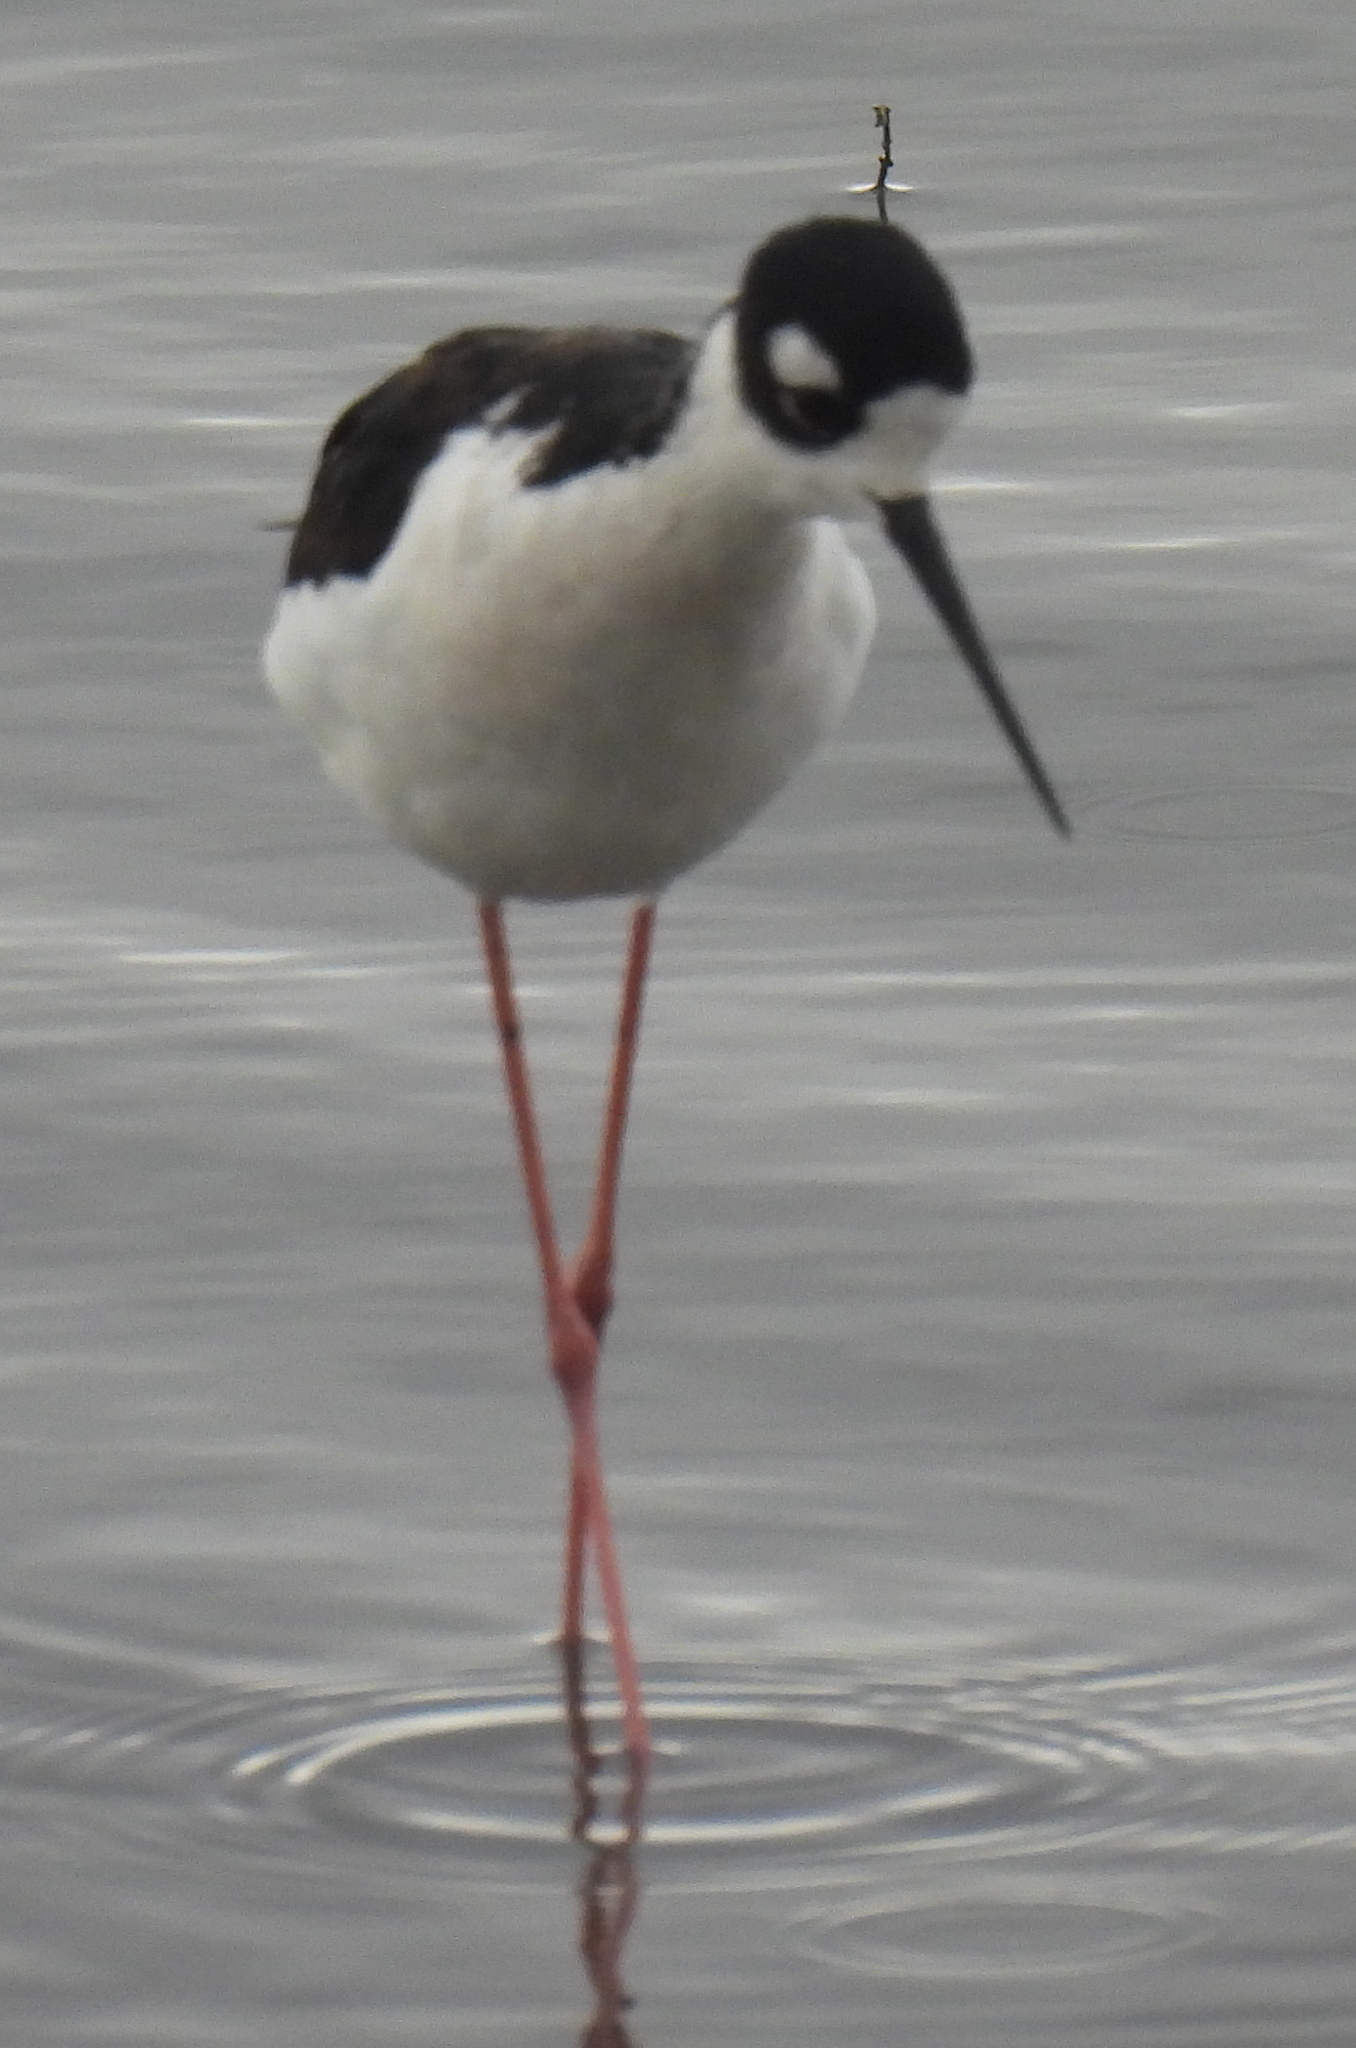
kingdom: Animalia
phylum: Chordata
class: Aves
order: Charadriiformes
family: Recurvirostridae
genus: Himantopus
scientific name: Himantopus mexicanus
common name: Black-necked stilt
